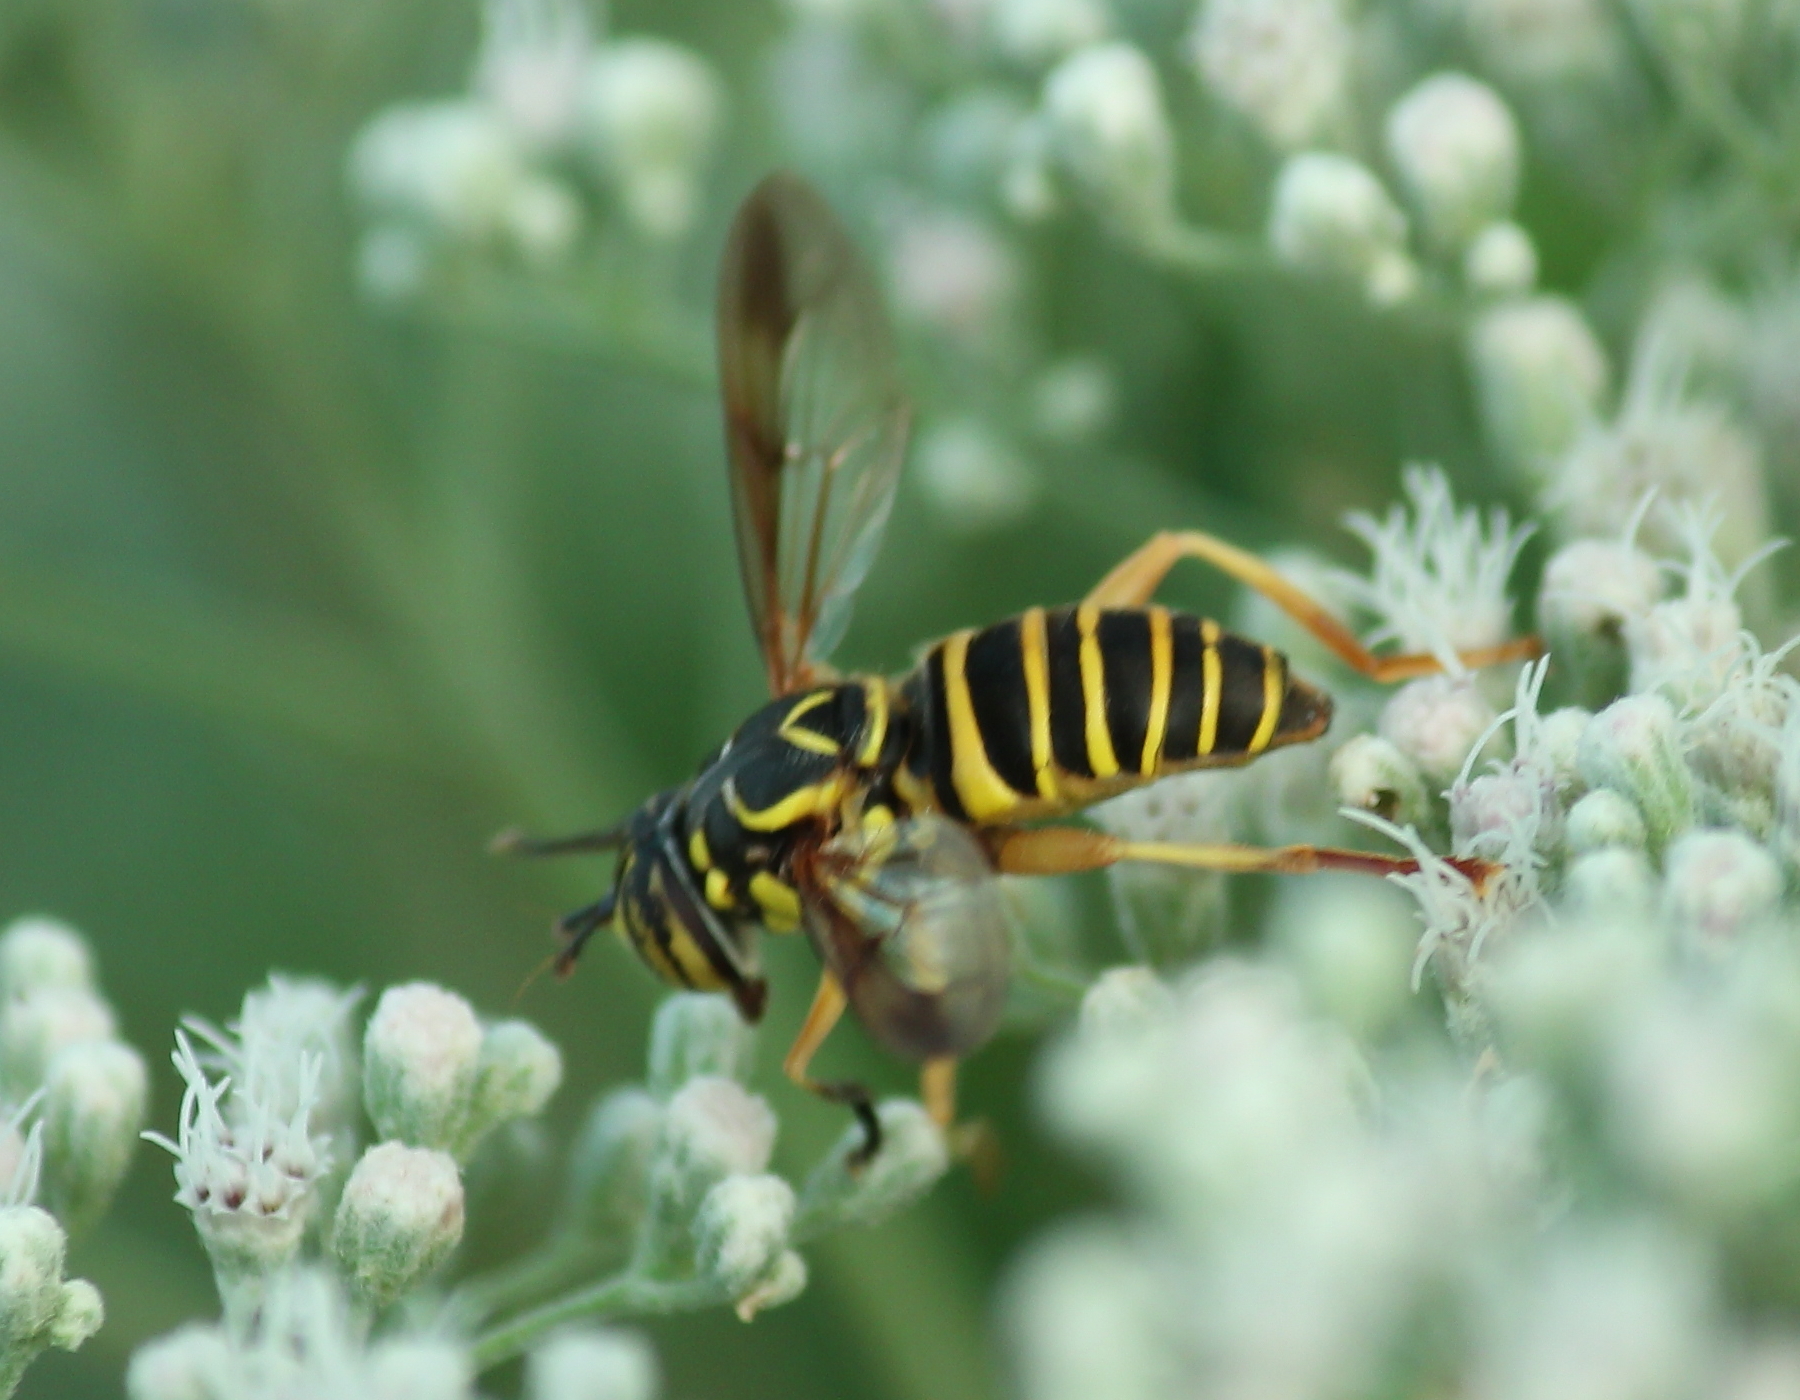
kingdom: Animalia
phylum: Arthropoda
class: Insecta
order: Diptera
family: Syrphidae
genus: Spilomyia
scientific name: Spilomyia longicornis
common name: Eastern hornet fly
